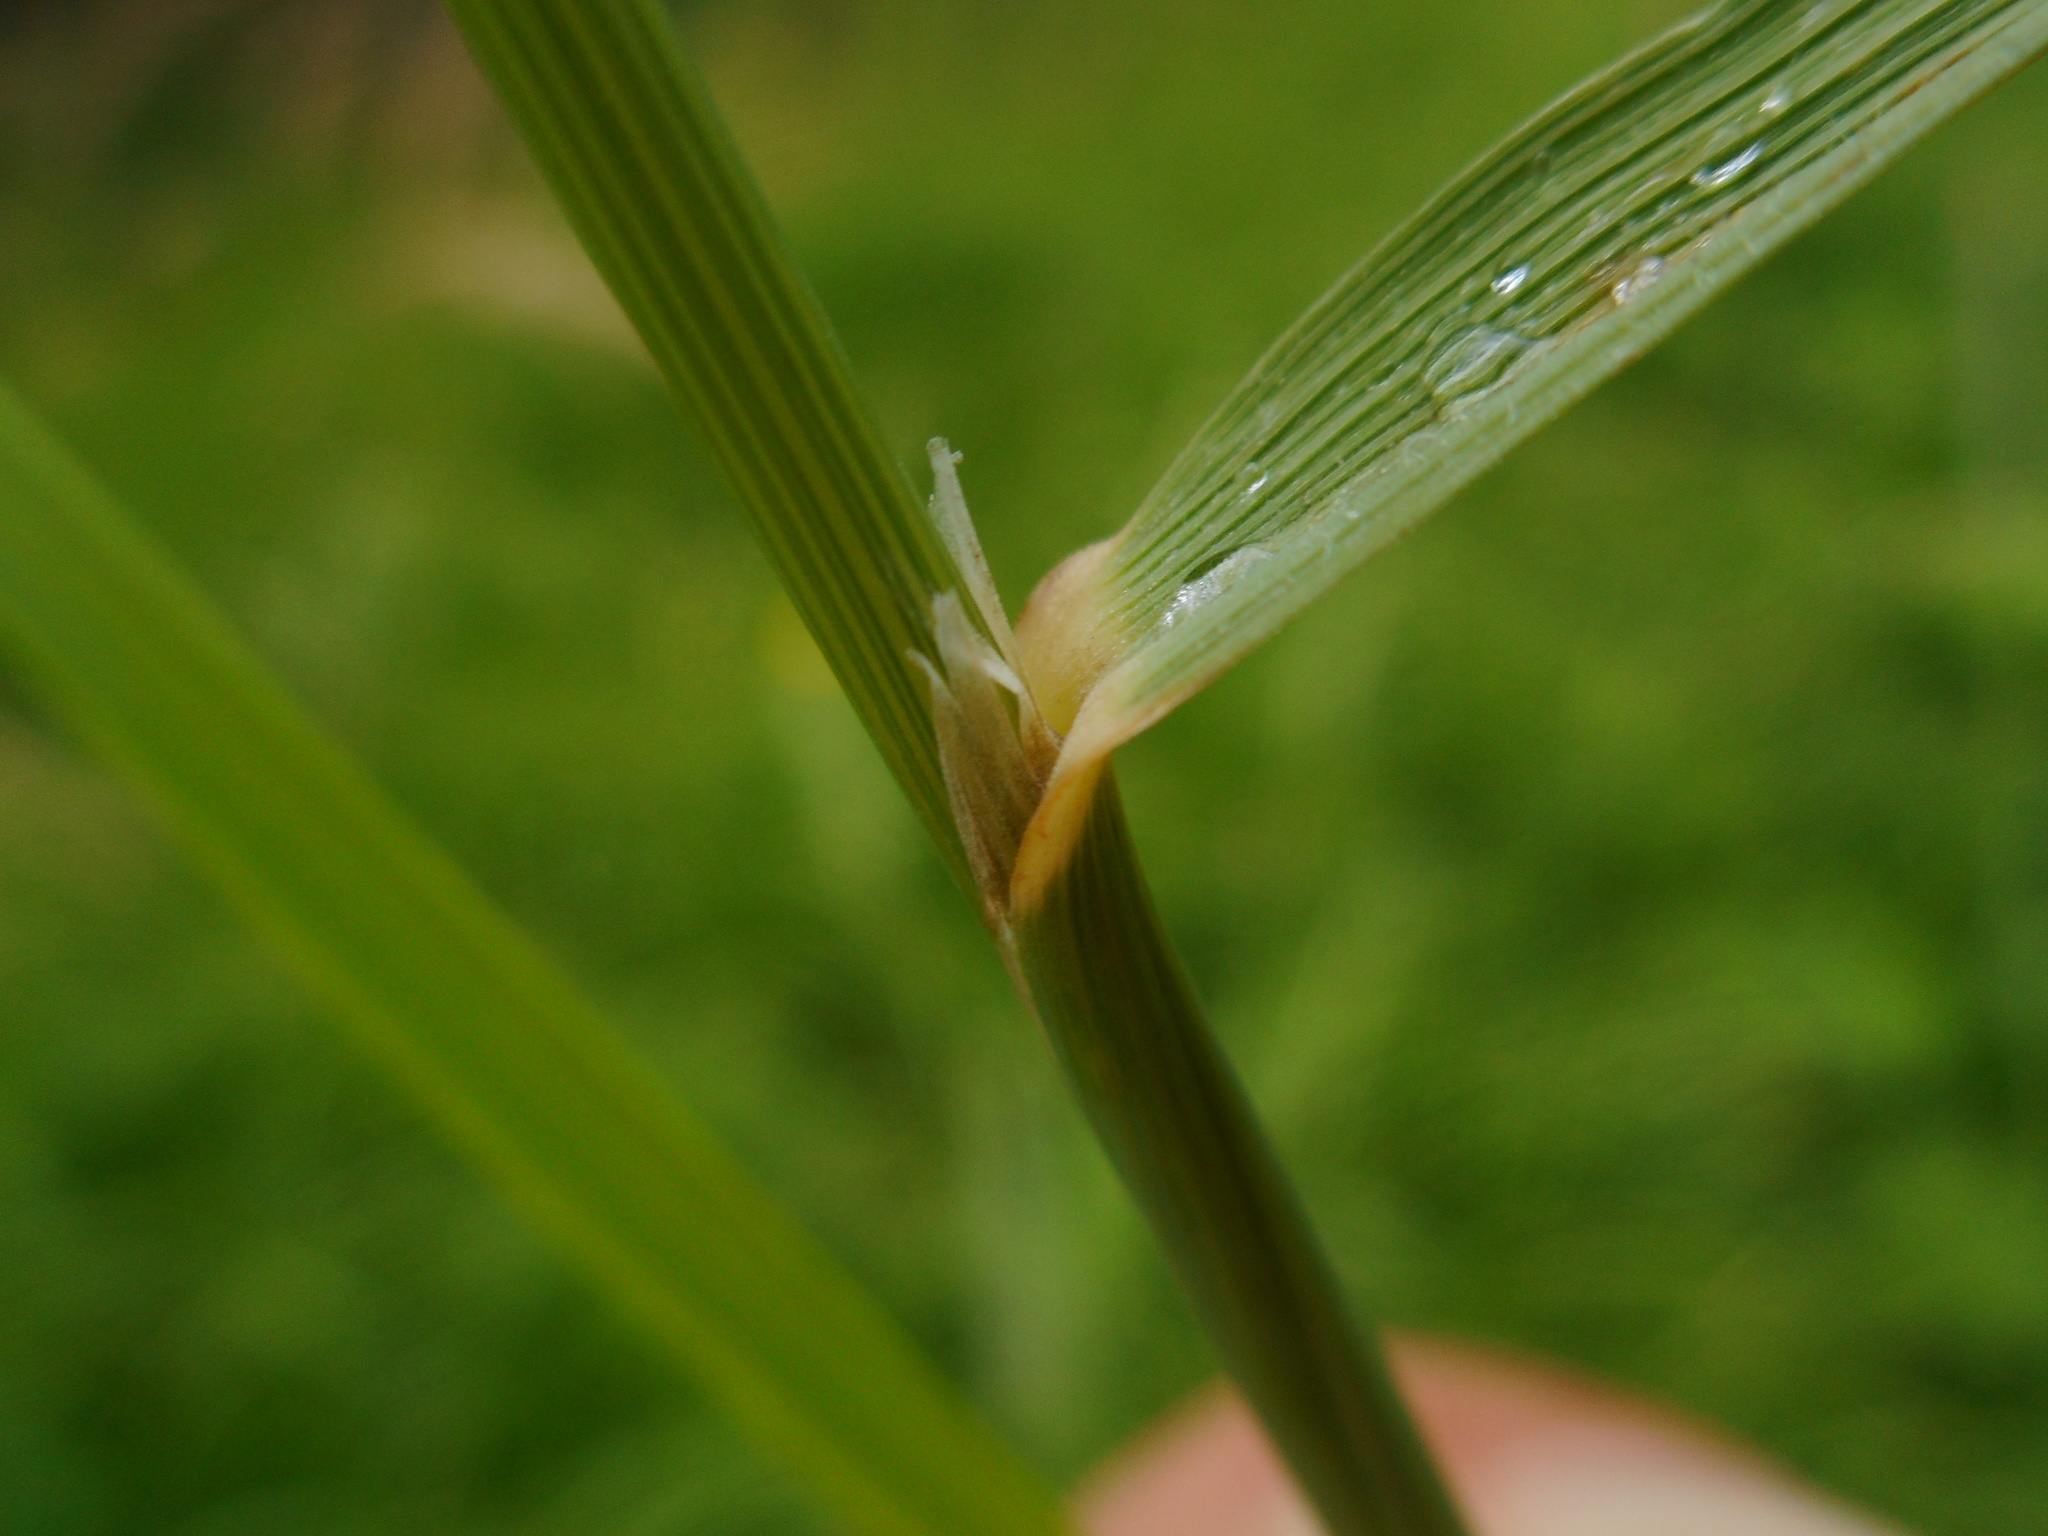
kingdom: Plantae
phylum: Tracheophyta
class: Liliopsida
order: Poales
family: Poaceae
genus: Calamagrostis
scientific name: Calamagrostis epigejos
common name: Wood small-reed
